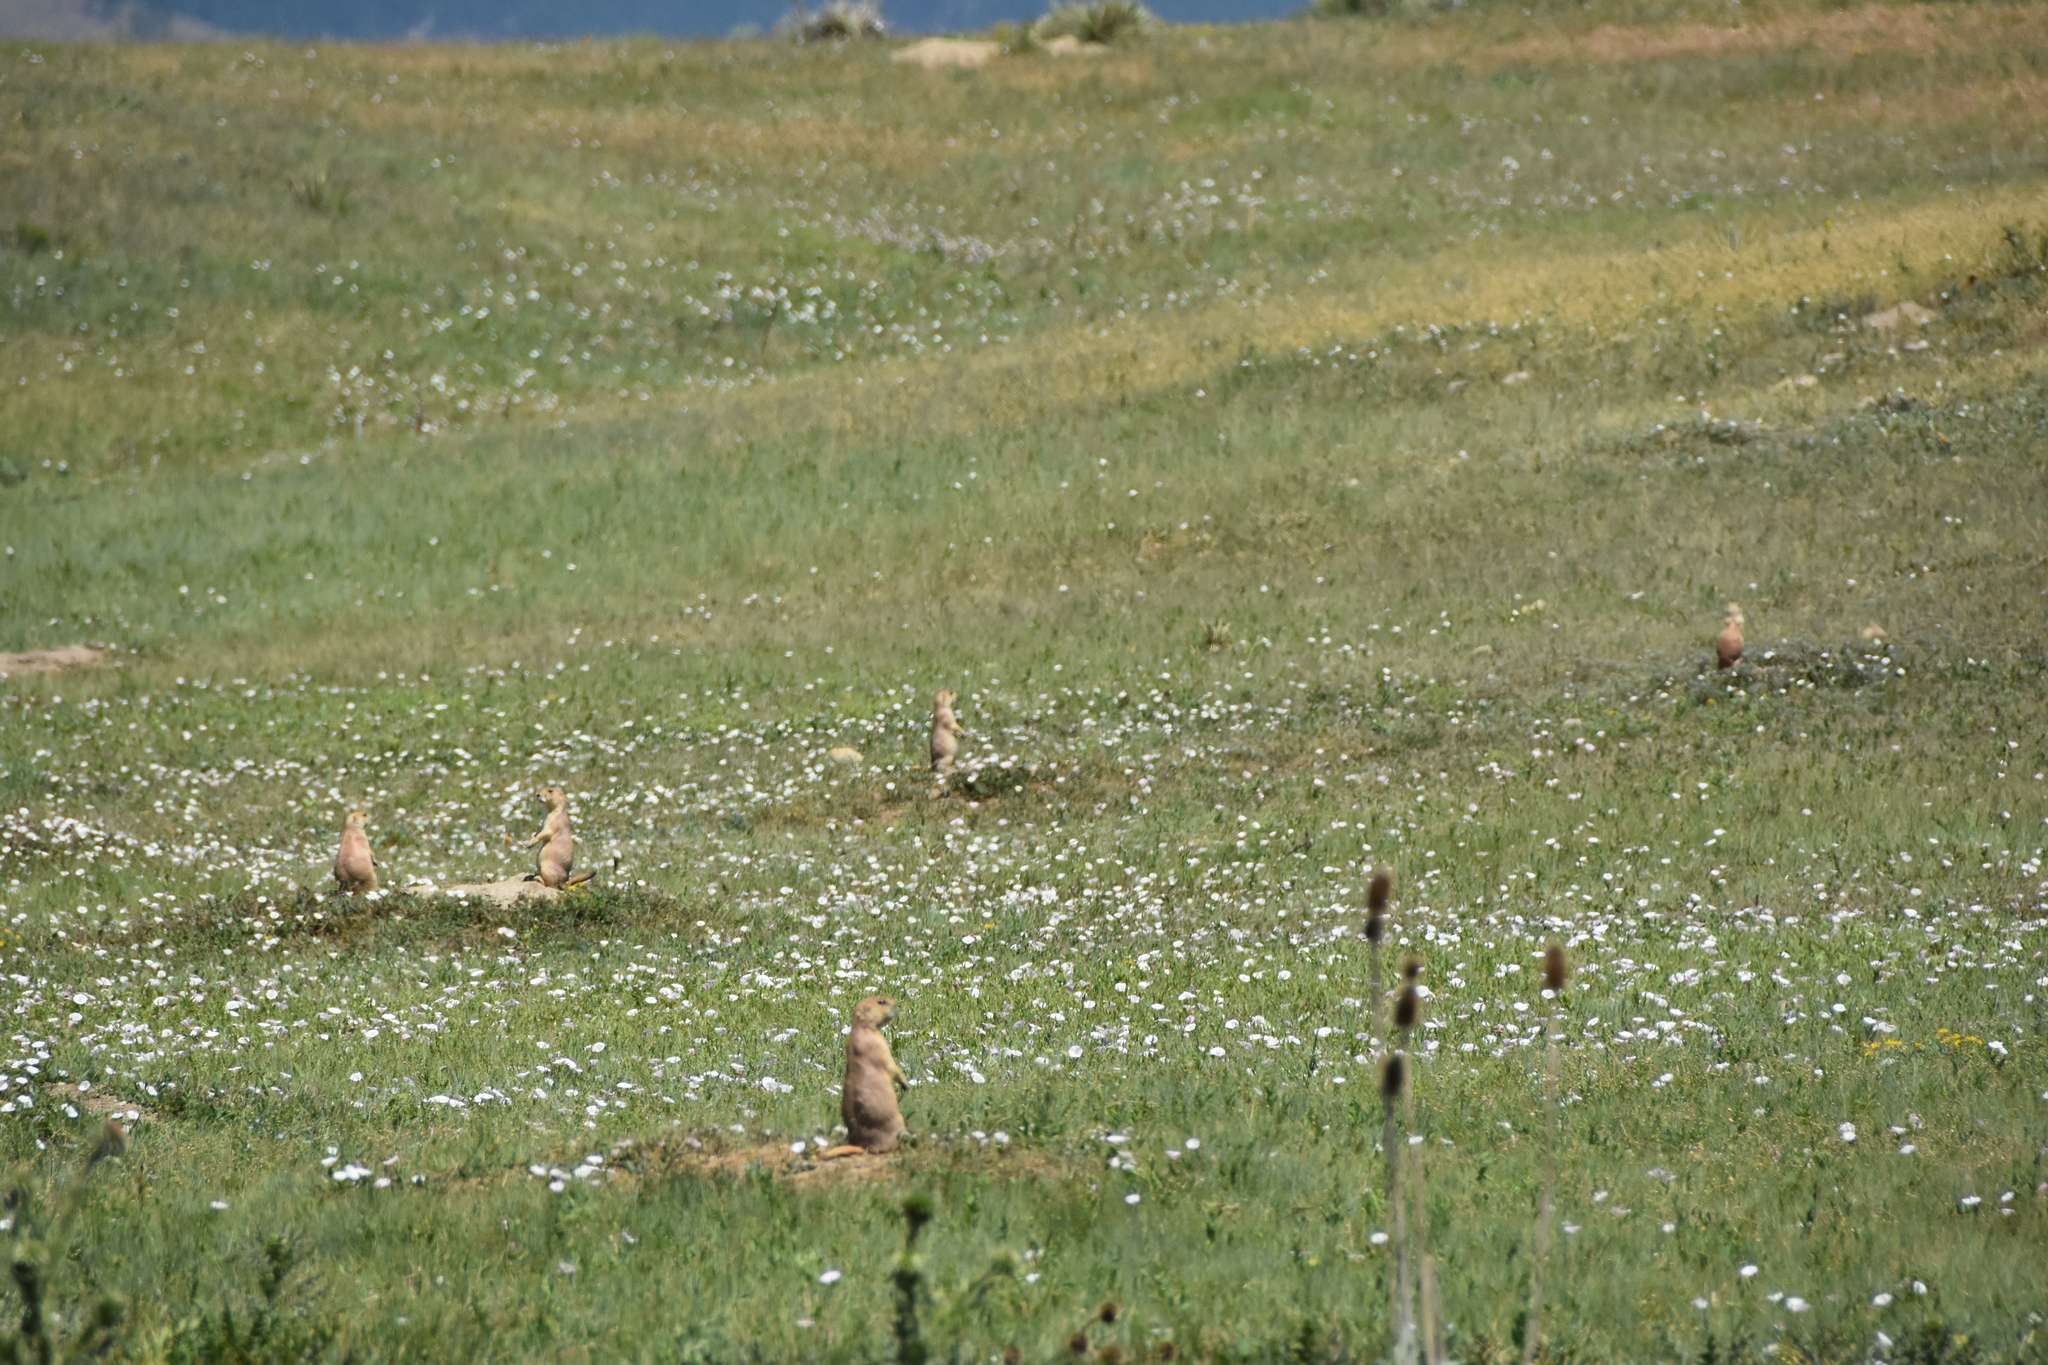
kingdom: Animalia
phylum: Chordata
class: Mammalia
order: Rodentia
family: Sciuridae
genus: Cynomys
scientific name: Cynomys ludovicianus
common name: Black-tailed prairie dog
